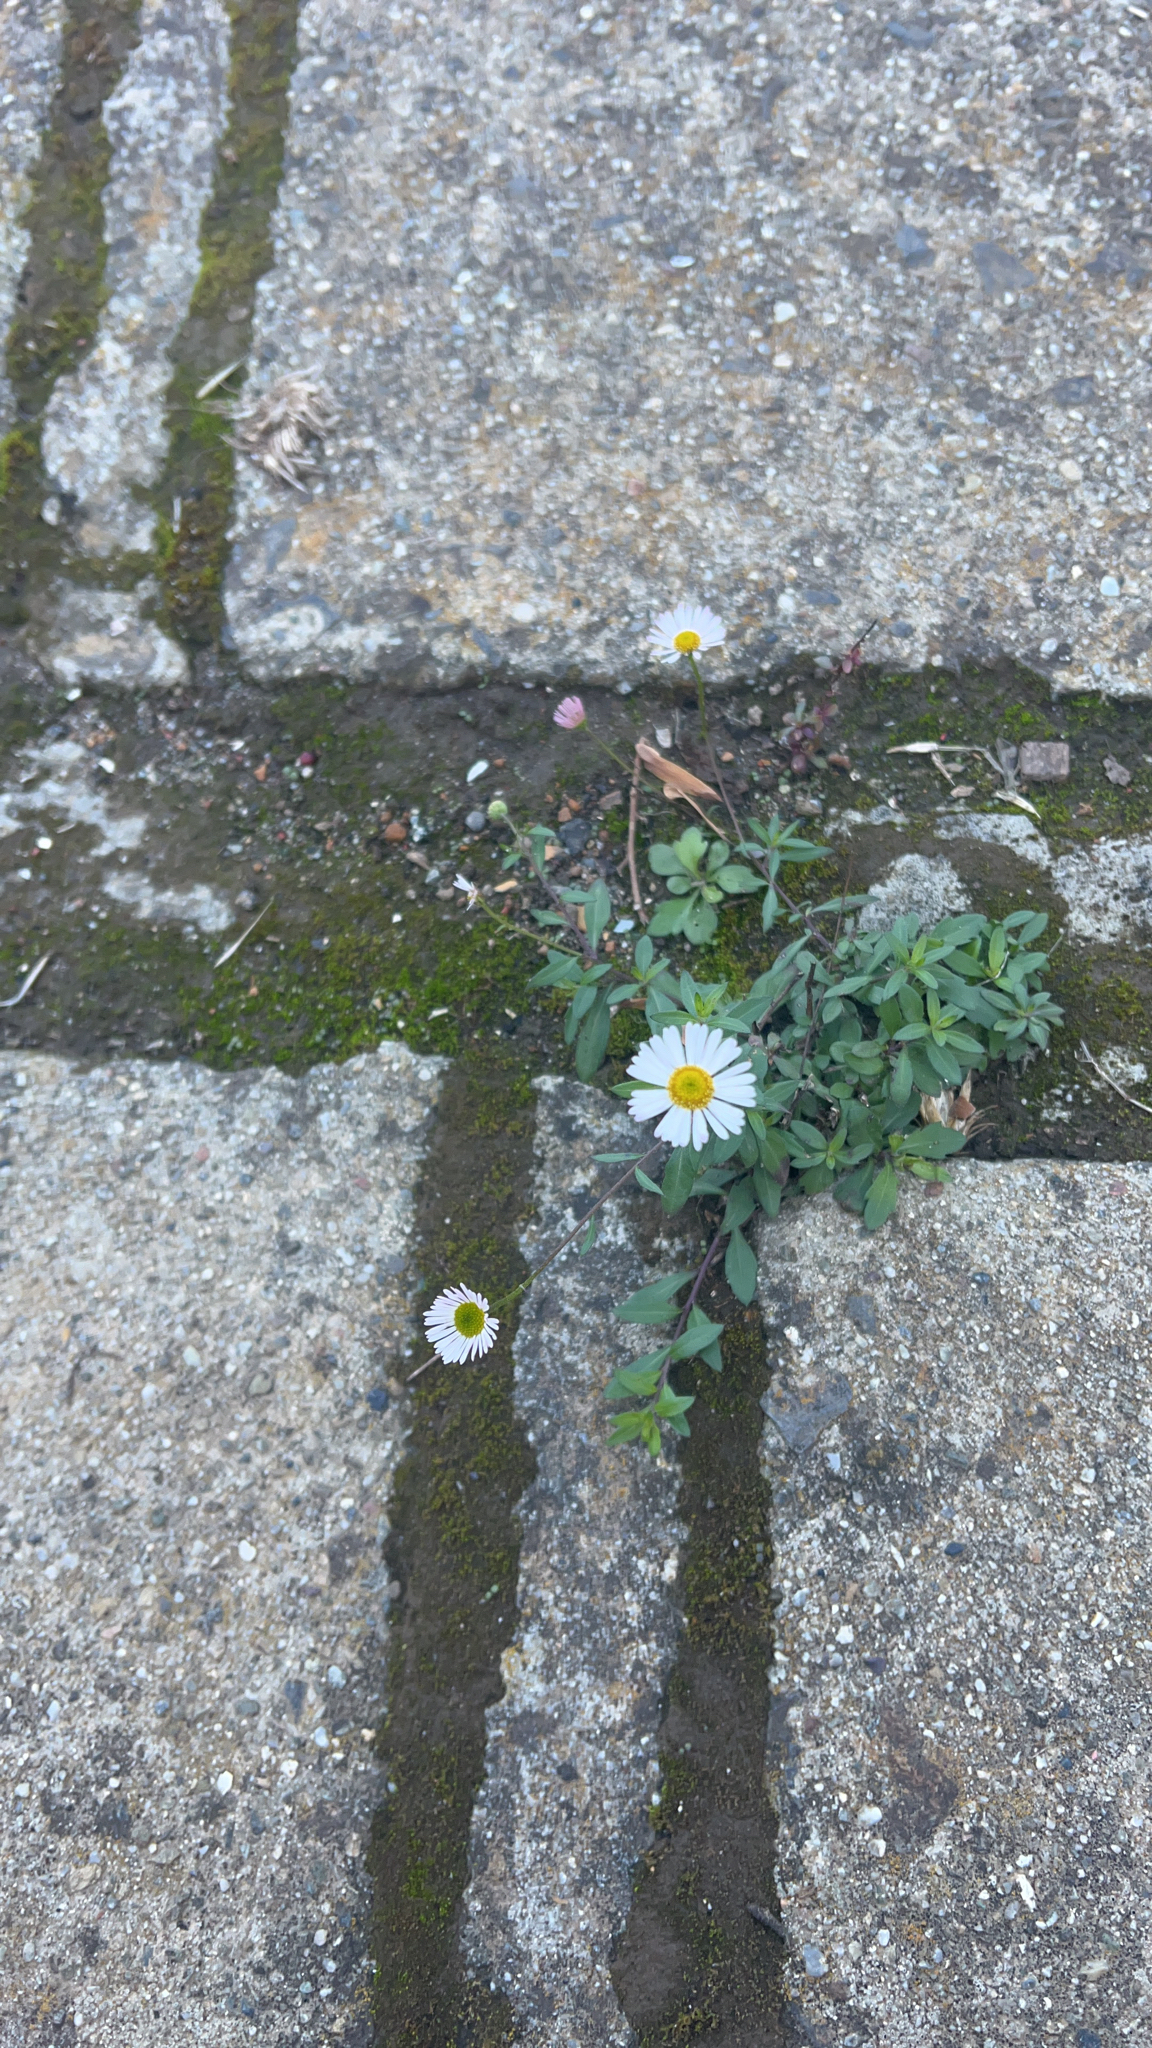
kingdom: Plantae
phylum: Tracheophyta
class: Magnoliopsida
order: Asterales
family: Asteraceae
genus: Erigeron
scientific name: Erigeron karvinskianus
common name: Mexican fleabane
